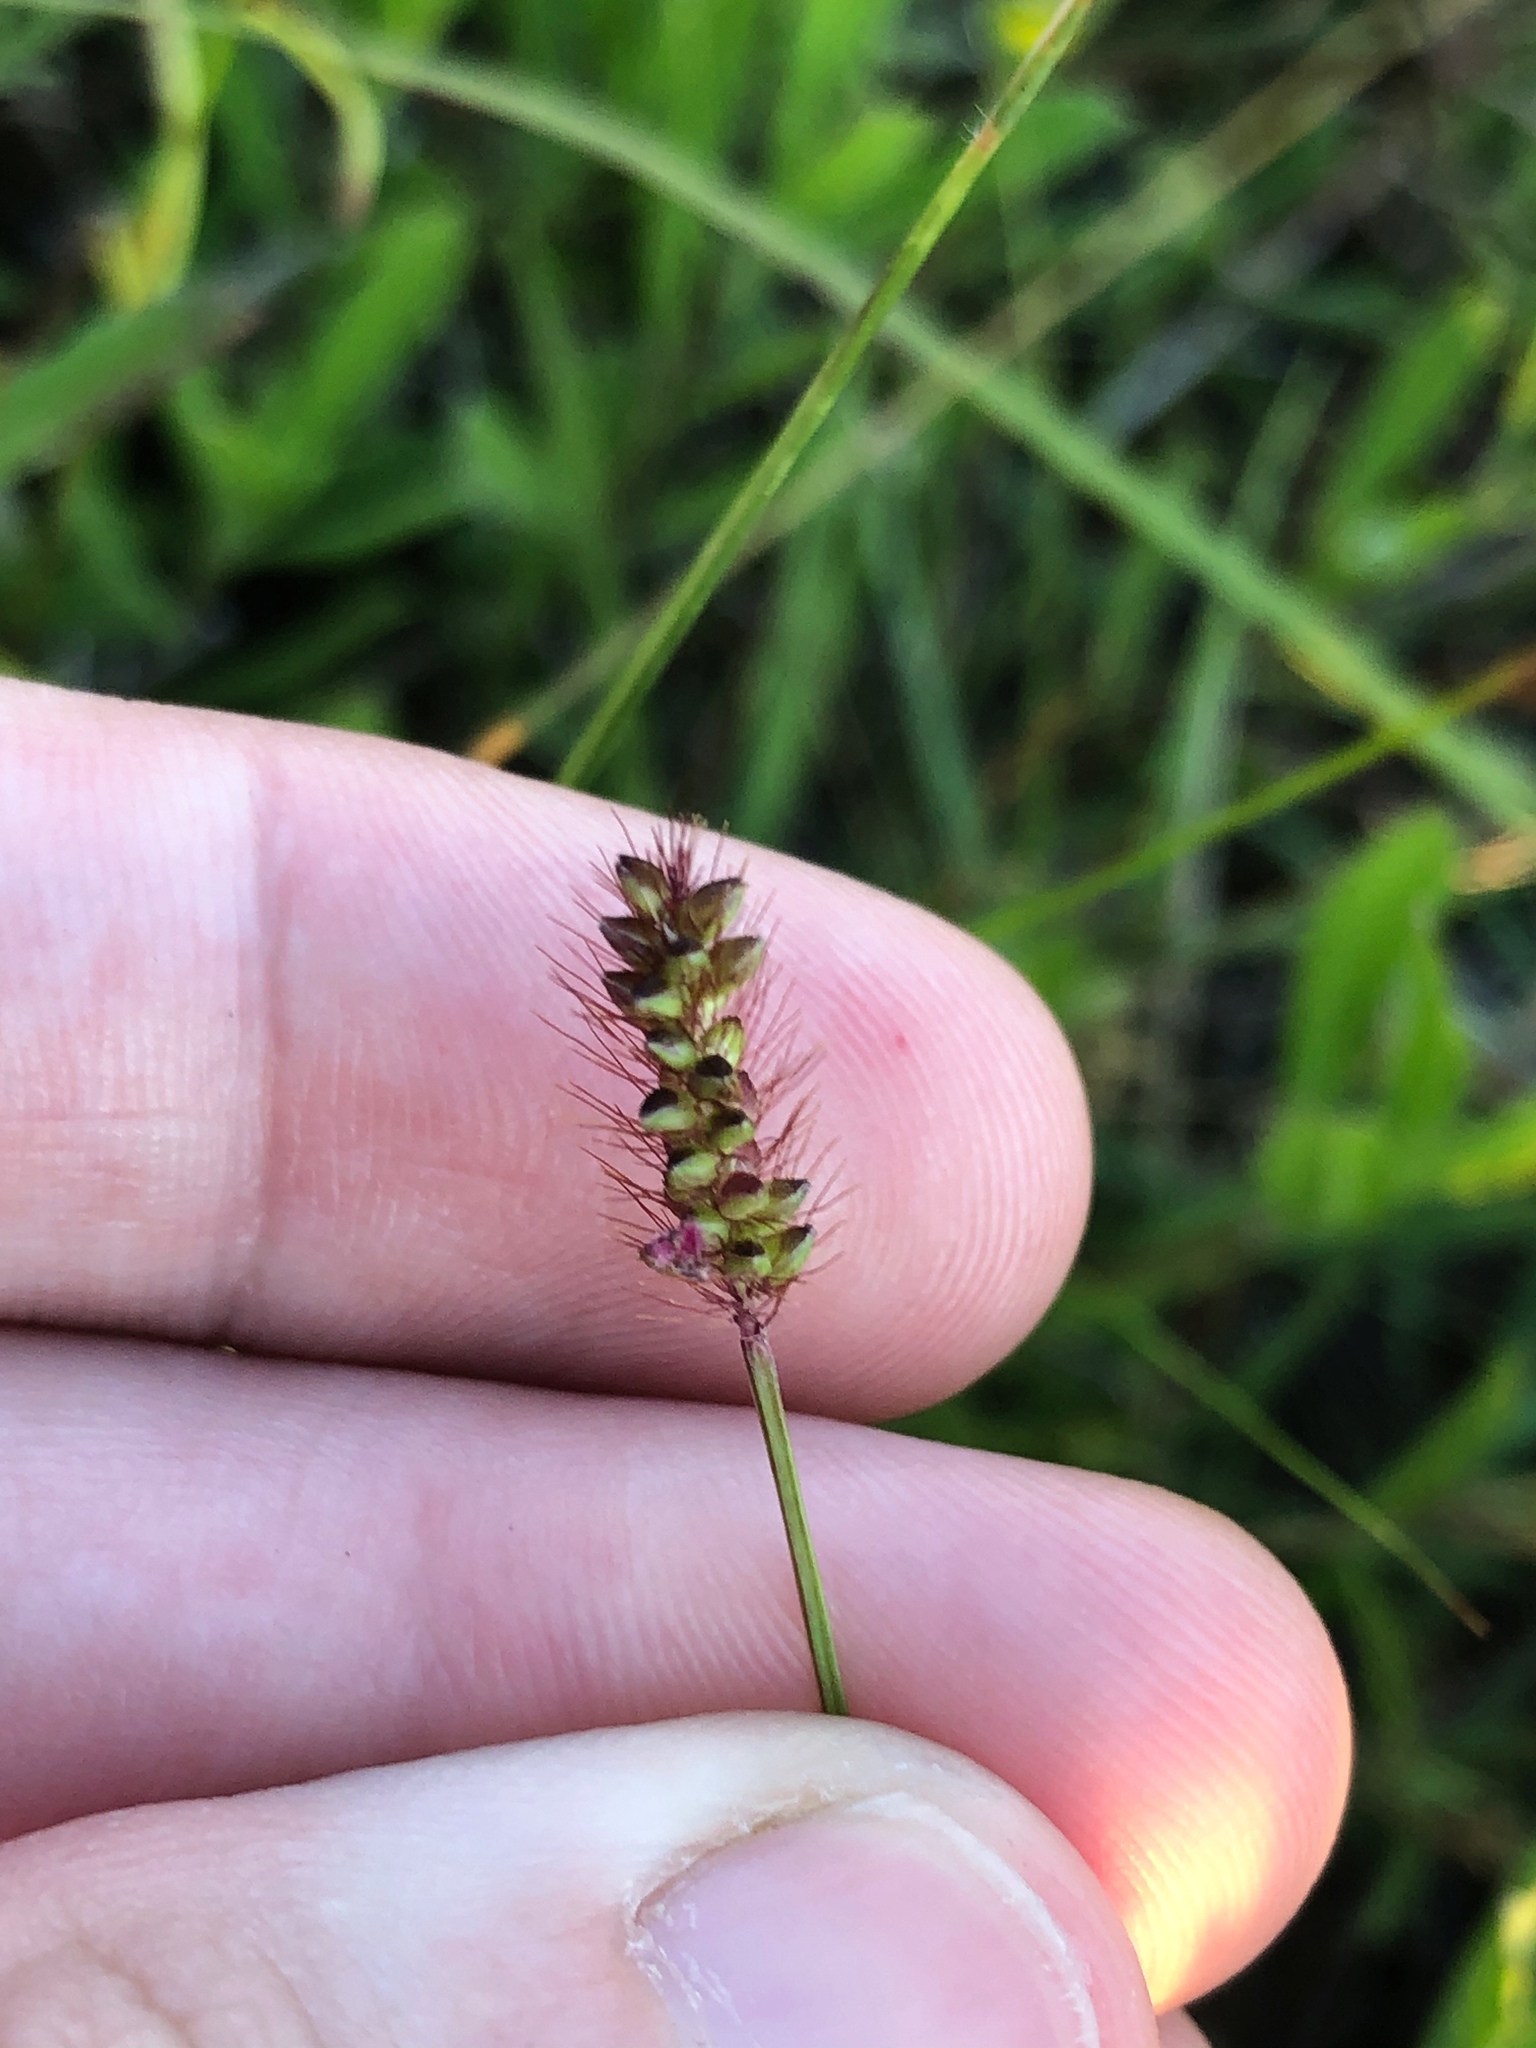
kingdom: Plantae
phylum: Tracheophyta
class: Liliopsida
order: Poales
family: Poaceae
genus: Setaria
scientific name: Setaria parviflora
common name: Knotroot bristle-grass
